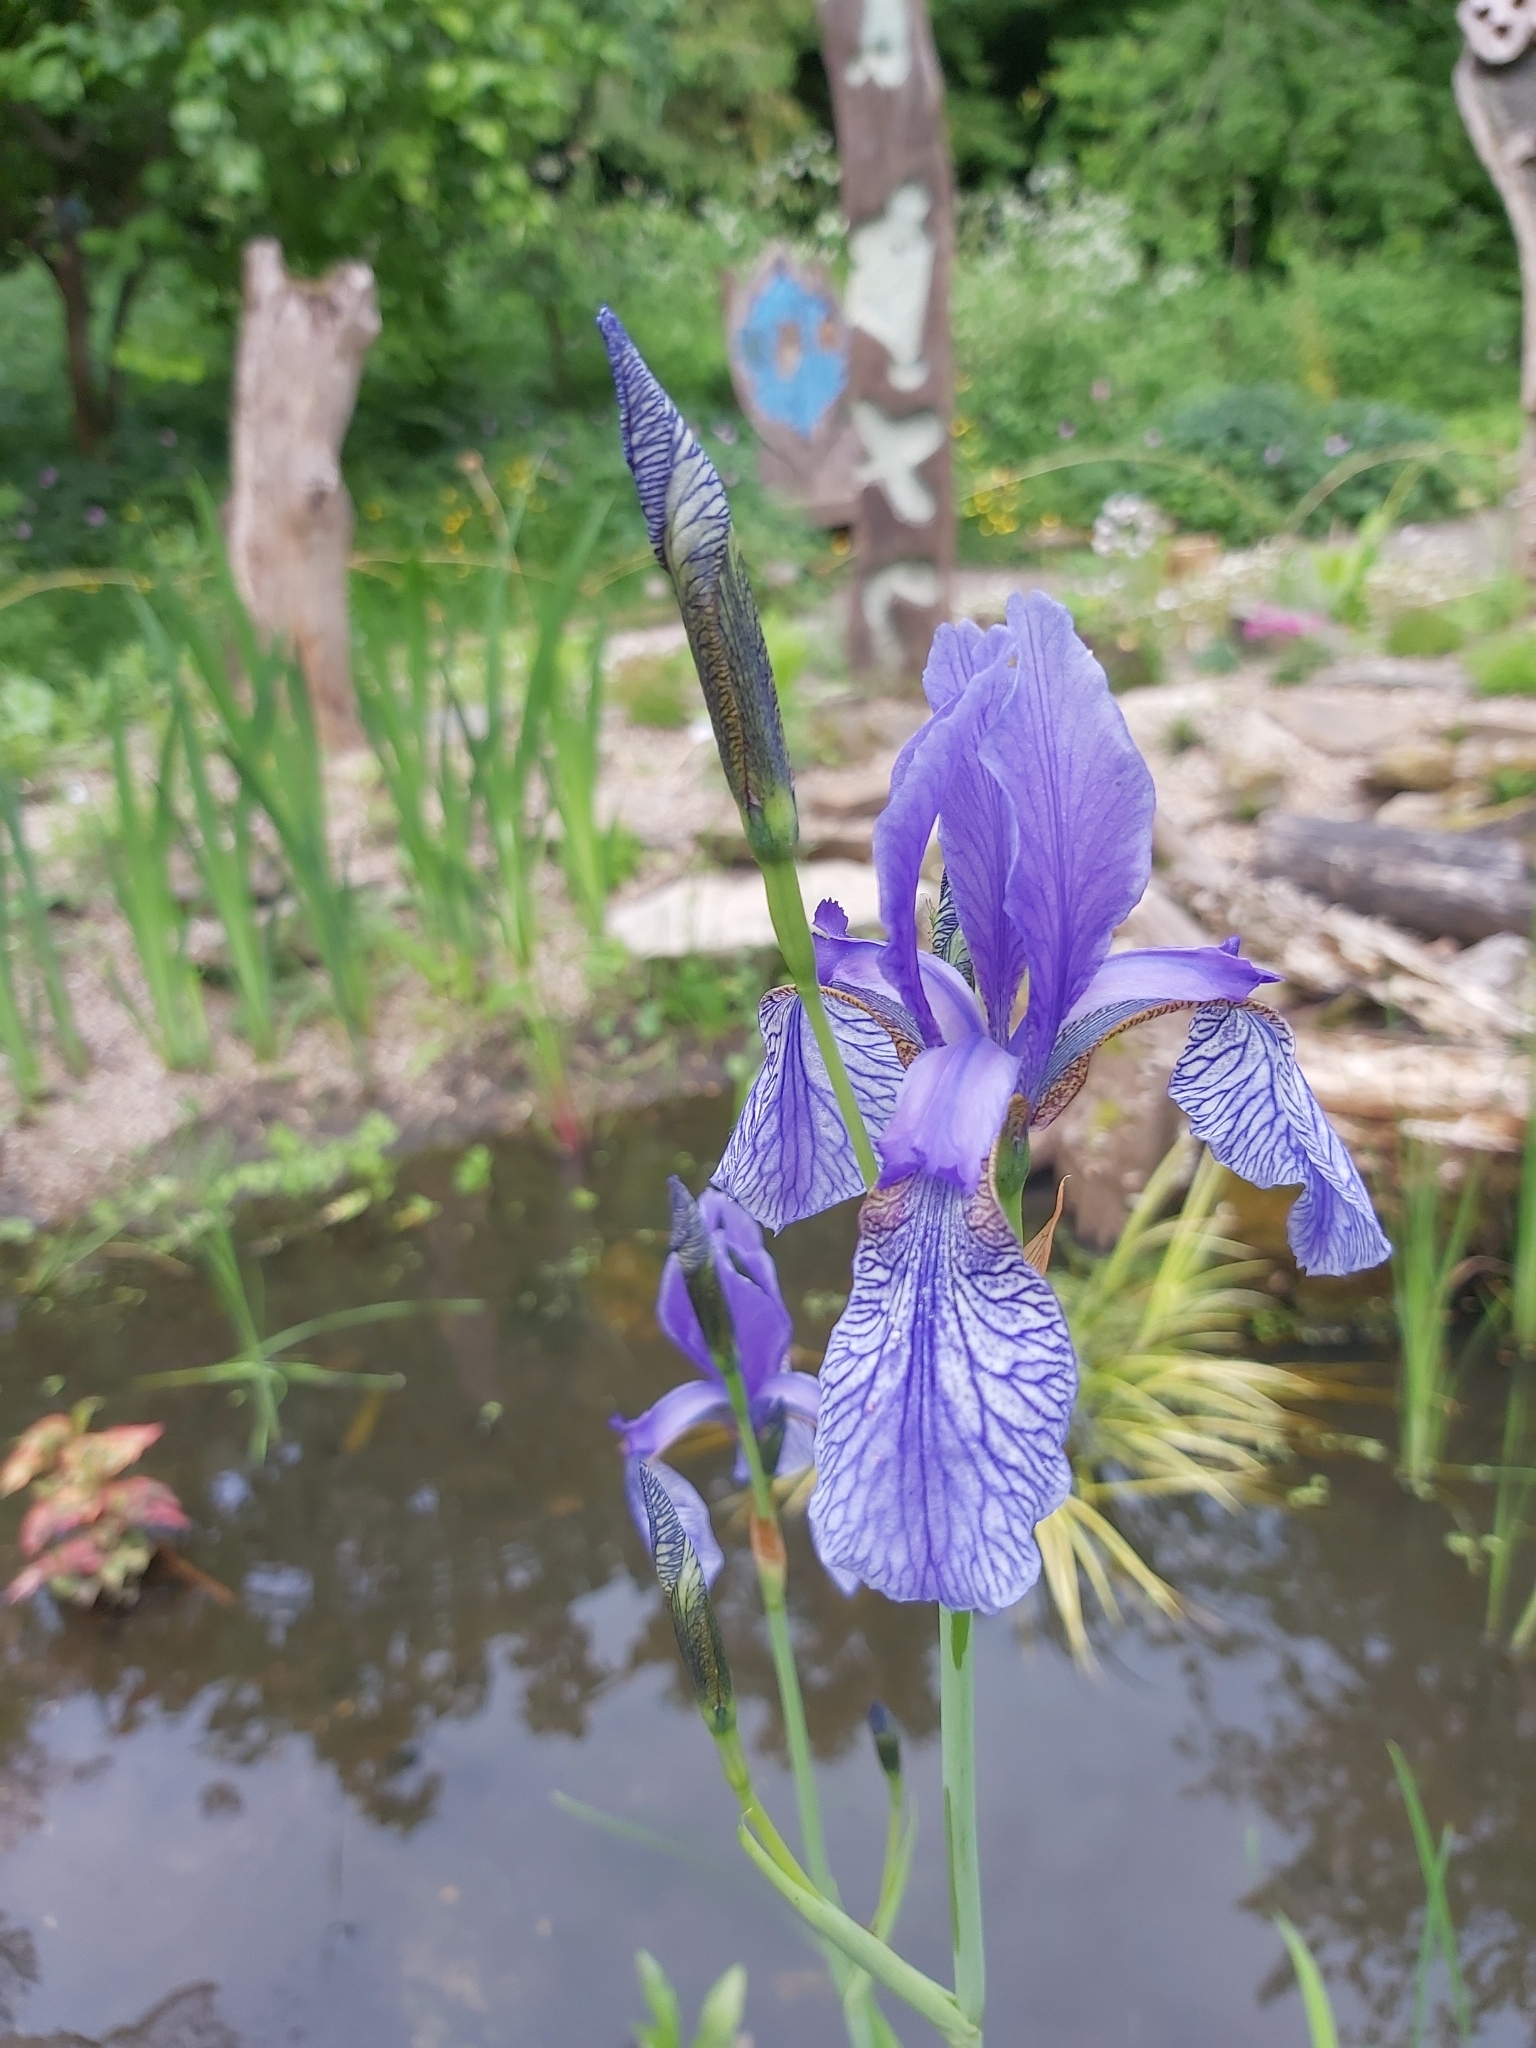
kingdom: Plantae
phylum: Tracheophyta
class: Liliopsida
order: Asparagales
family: Iridaceae
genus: Iris
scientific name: Iris sibirica
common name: Siberian iris
